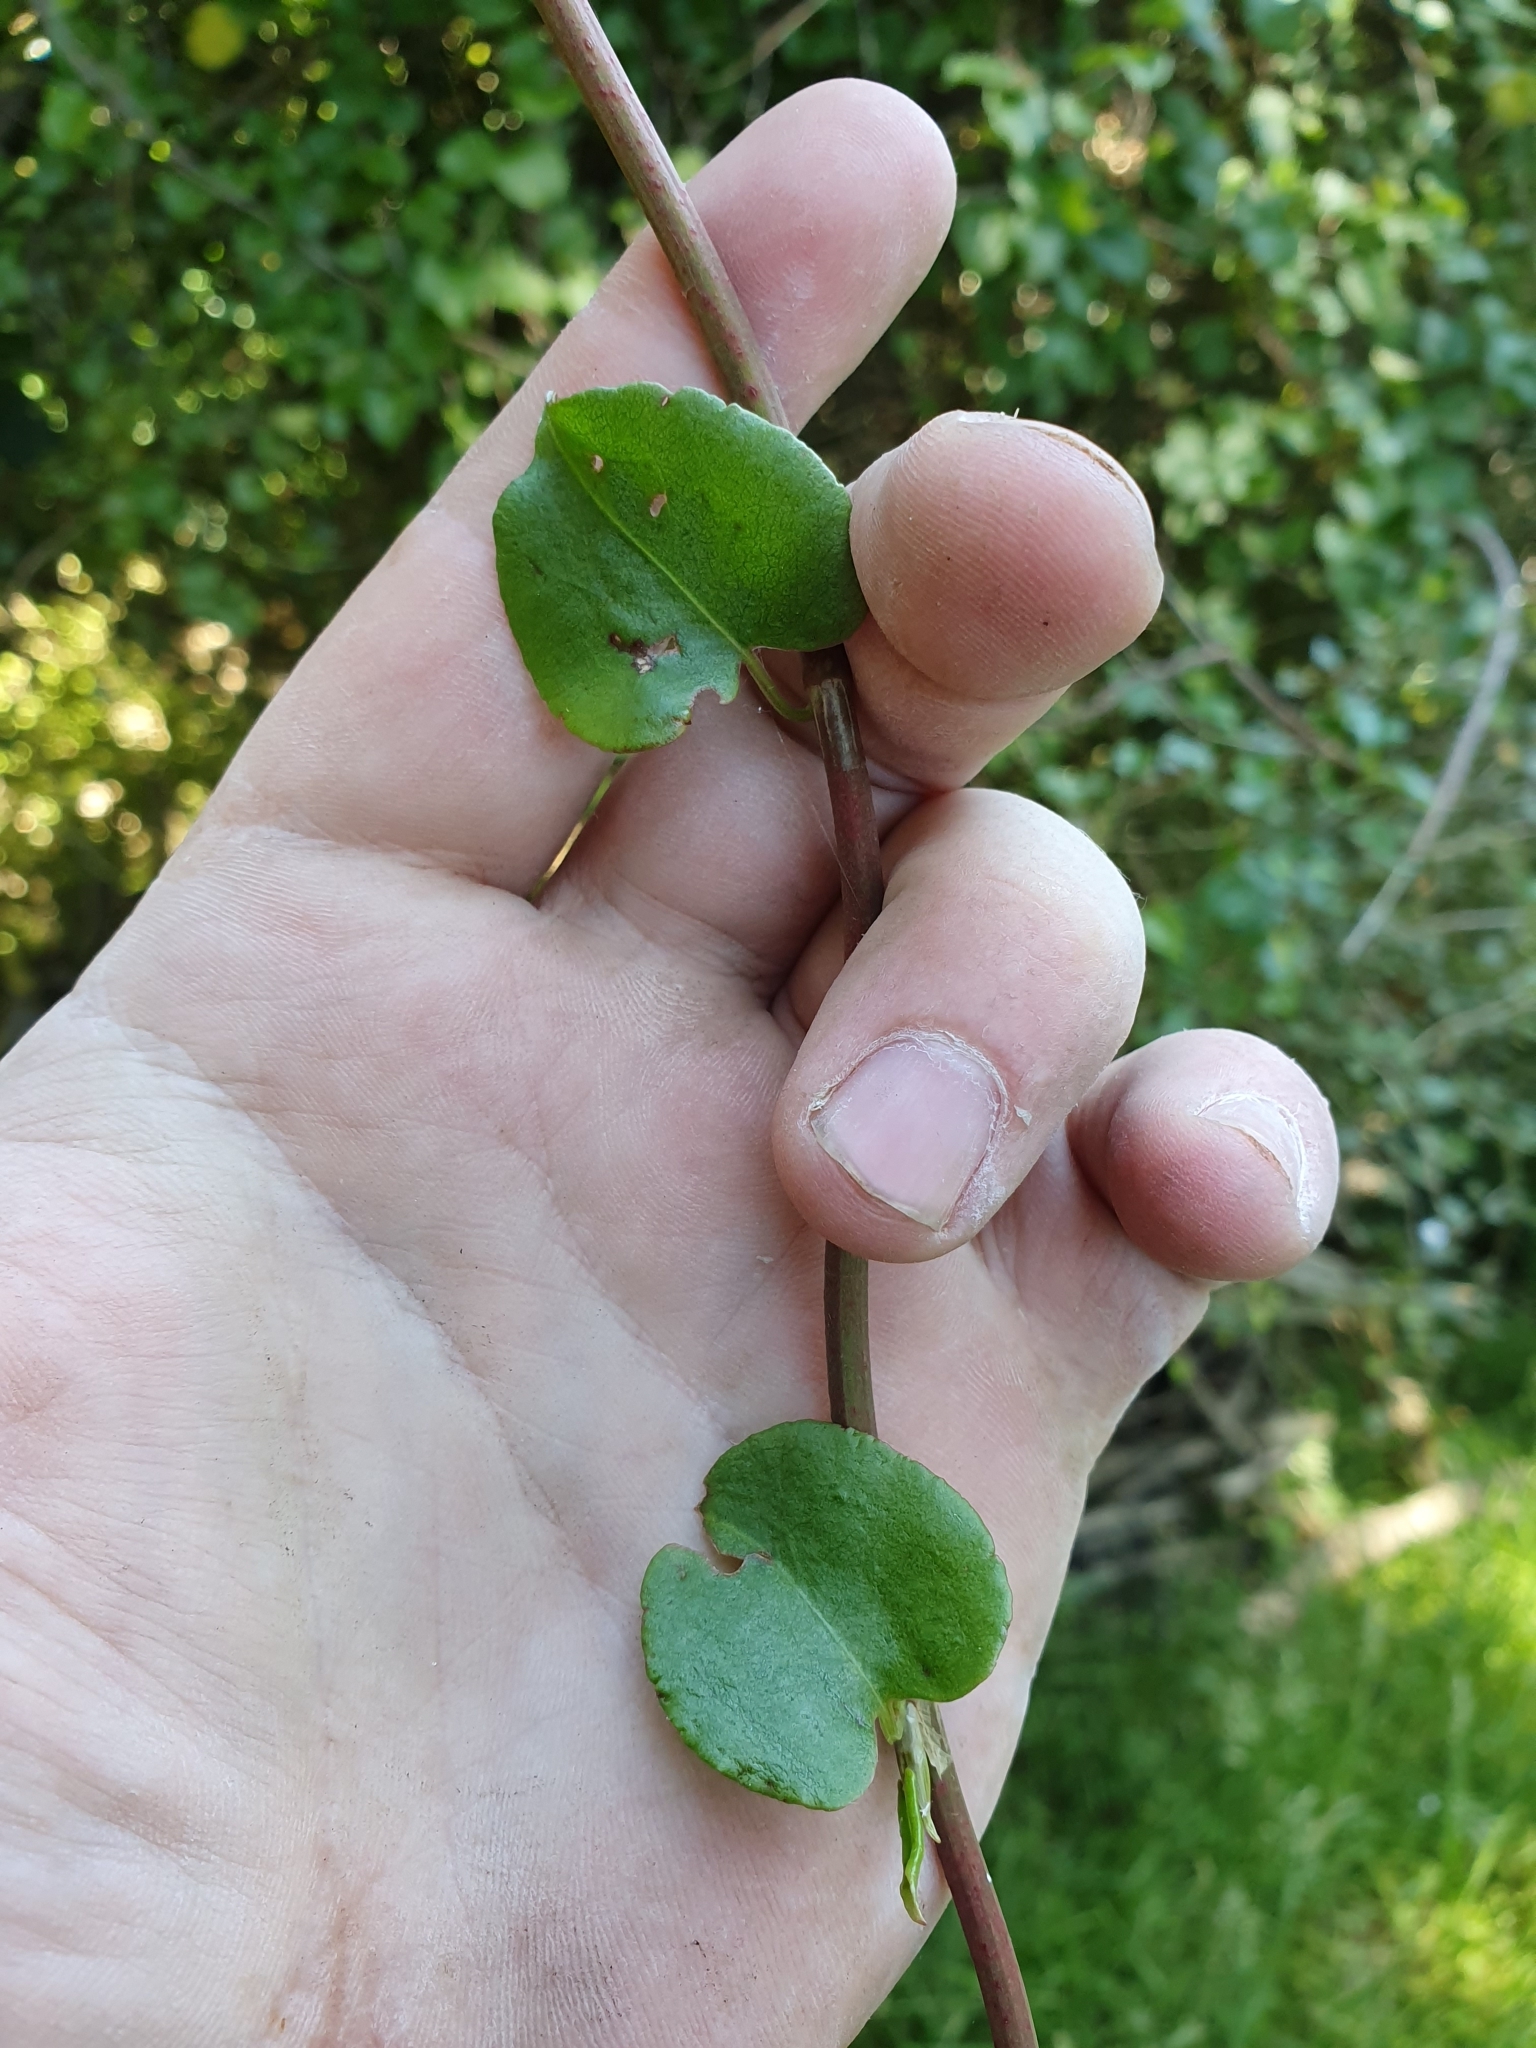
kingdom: Plantae
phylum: Tracheophyta
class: Magnoliopsida
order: Caryophyllales
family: Polygonaceae
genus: Muehlenbeckia
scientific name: Muehlenbeckia australis
